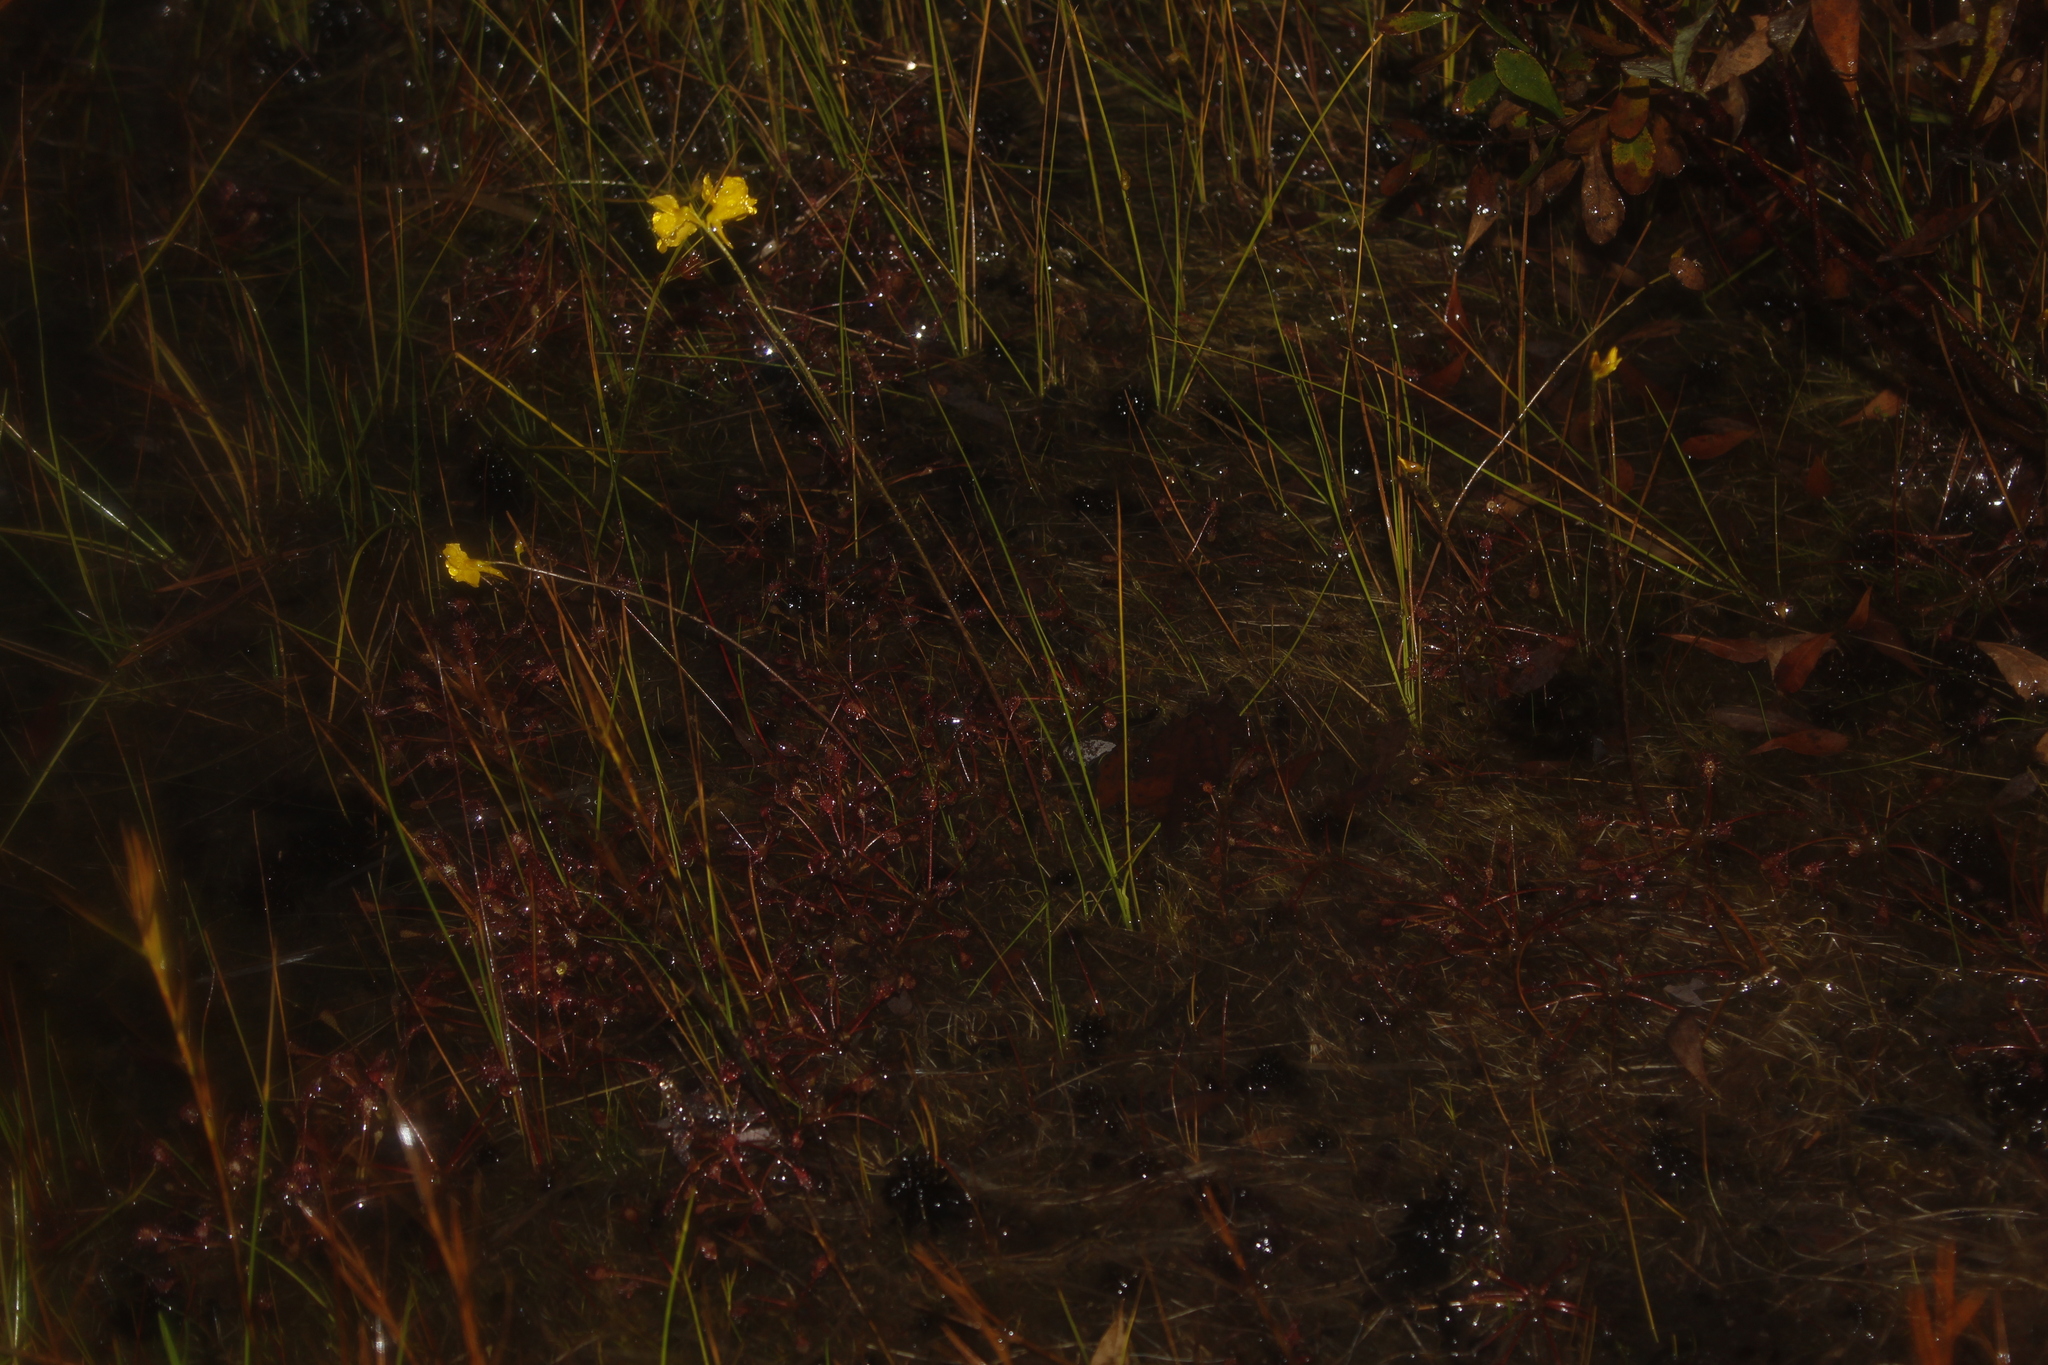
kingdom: Plantae
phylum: Tracheophyta
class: Magnoliopsida
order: Caryophyllales
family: Droseraceae
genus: Drosera
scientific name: Drosera intermedia
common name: Oblong-leaved sundew
